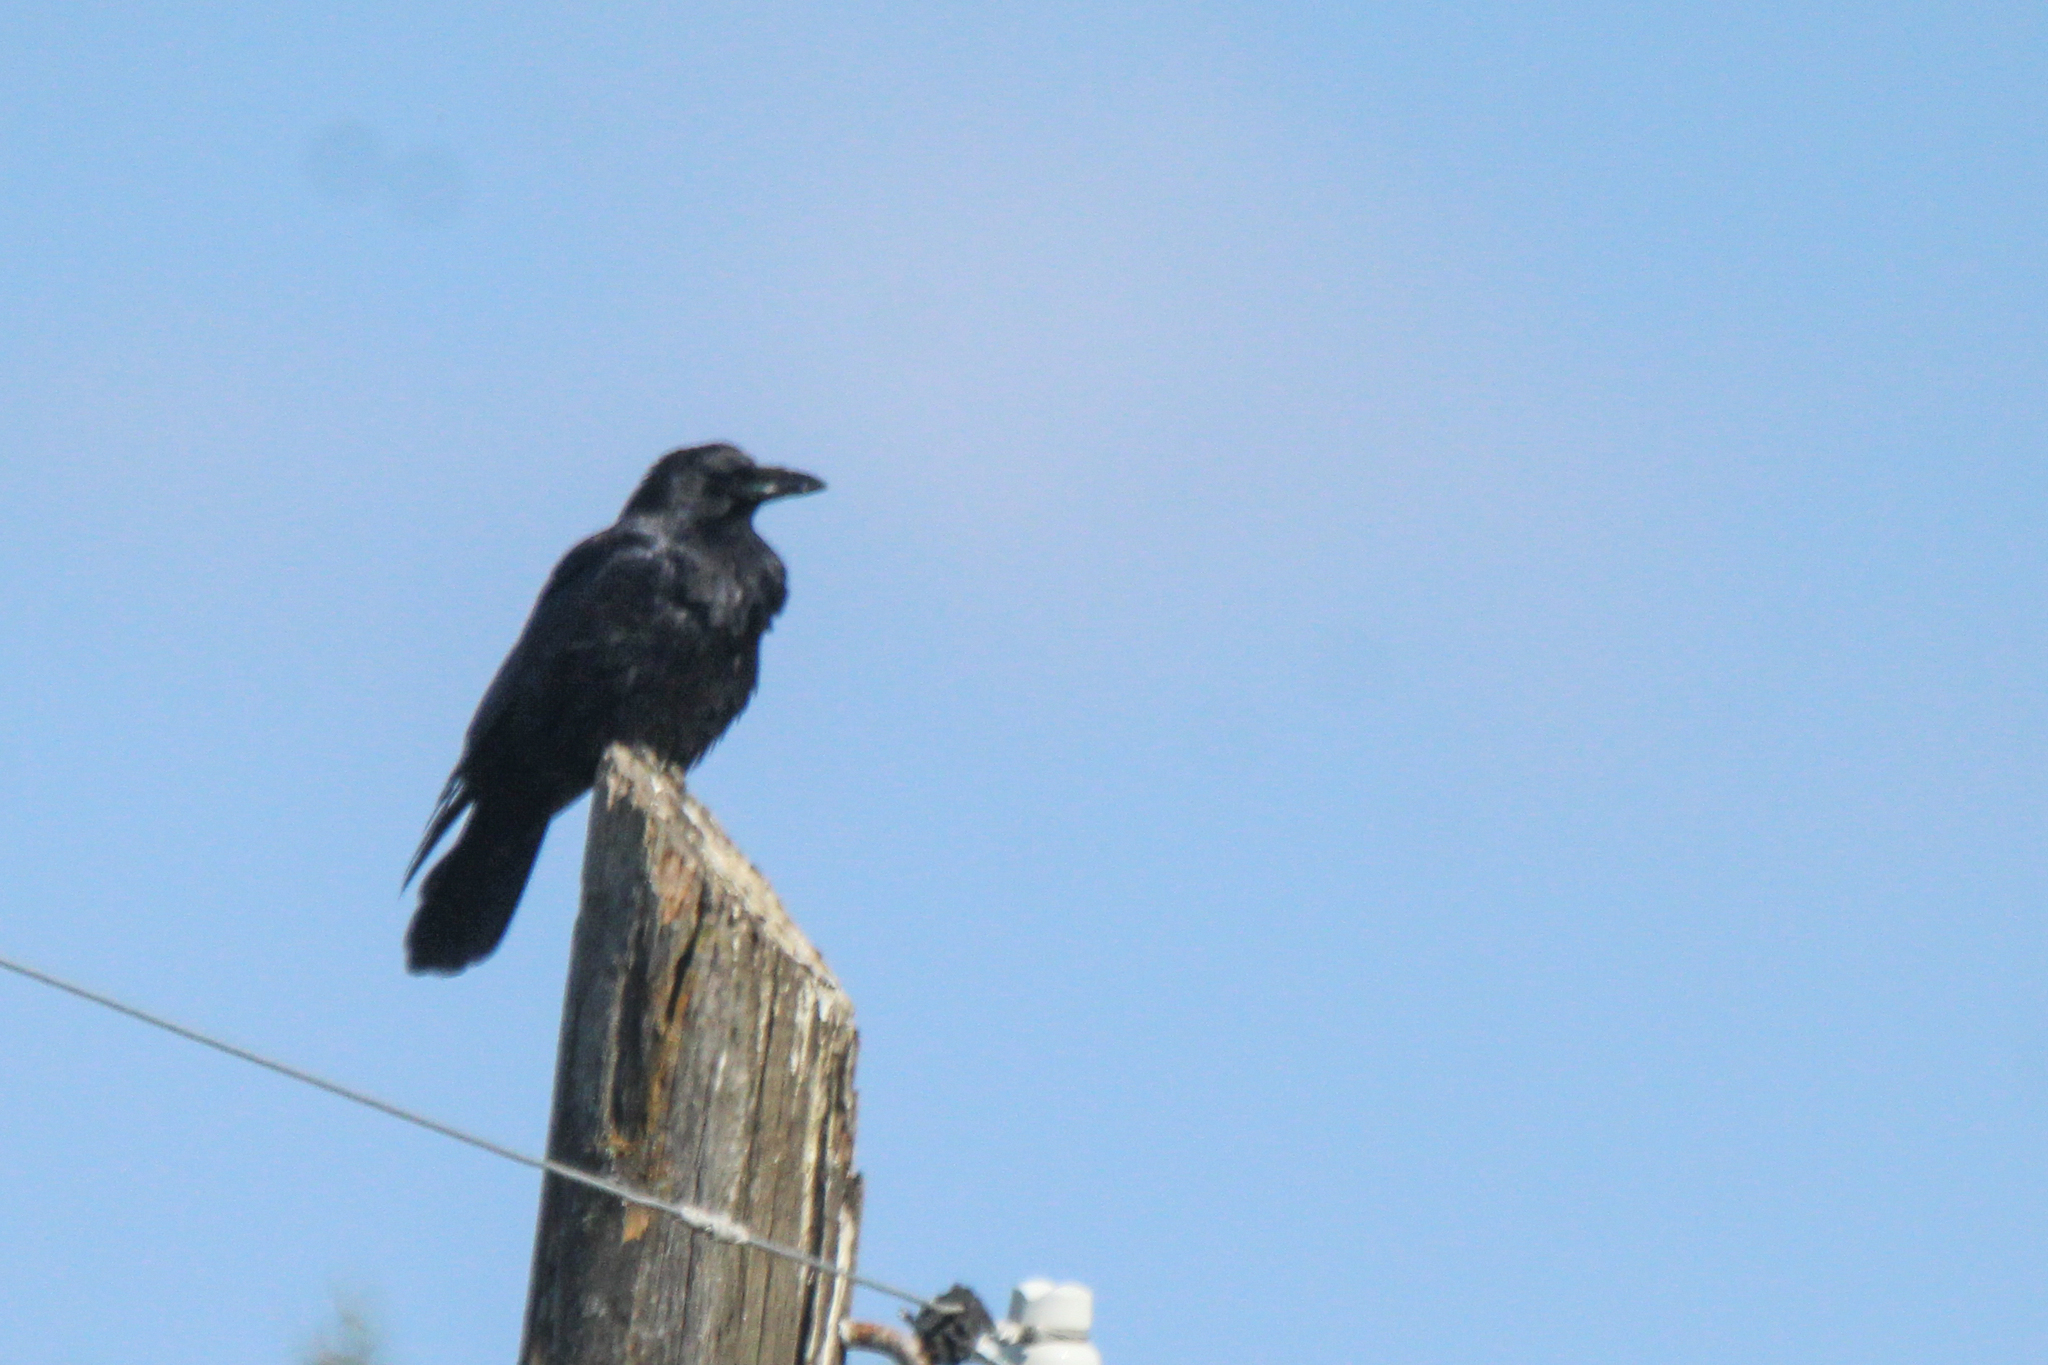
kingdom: Animalia
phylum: Chordata
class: Aves
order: Passeriformes
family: Corvidae
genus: Corvus
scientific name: Corvus corone
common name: Carrion crow
